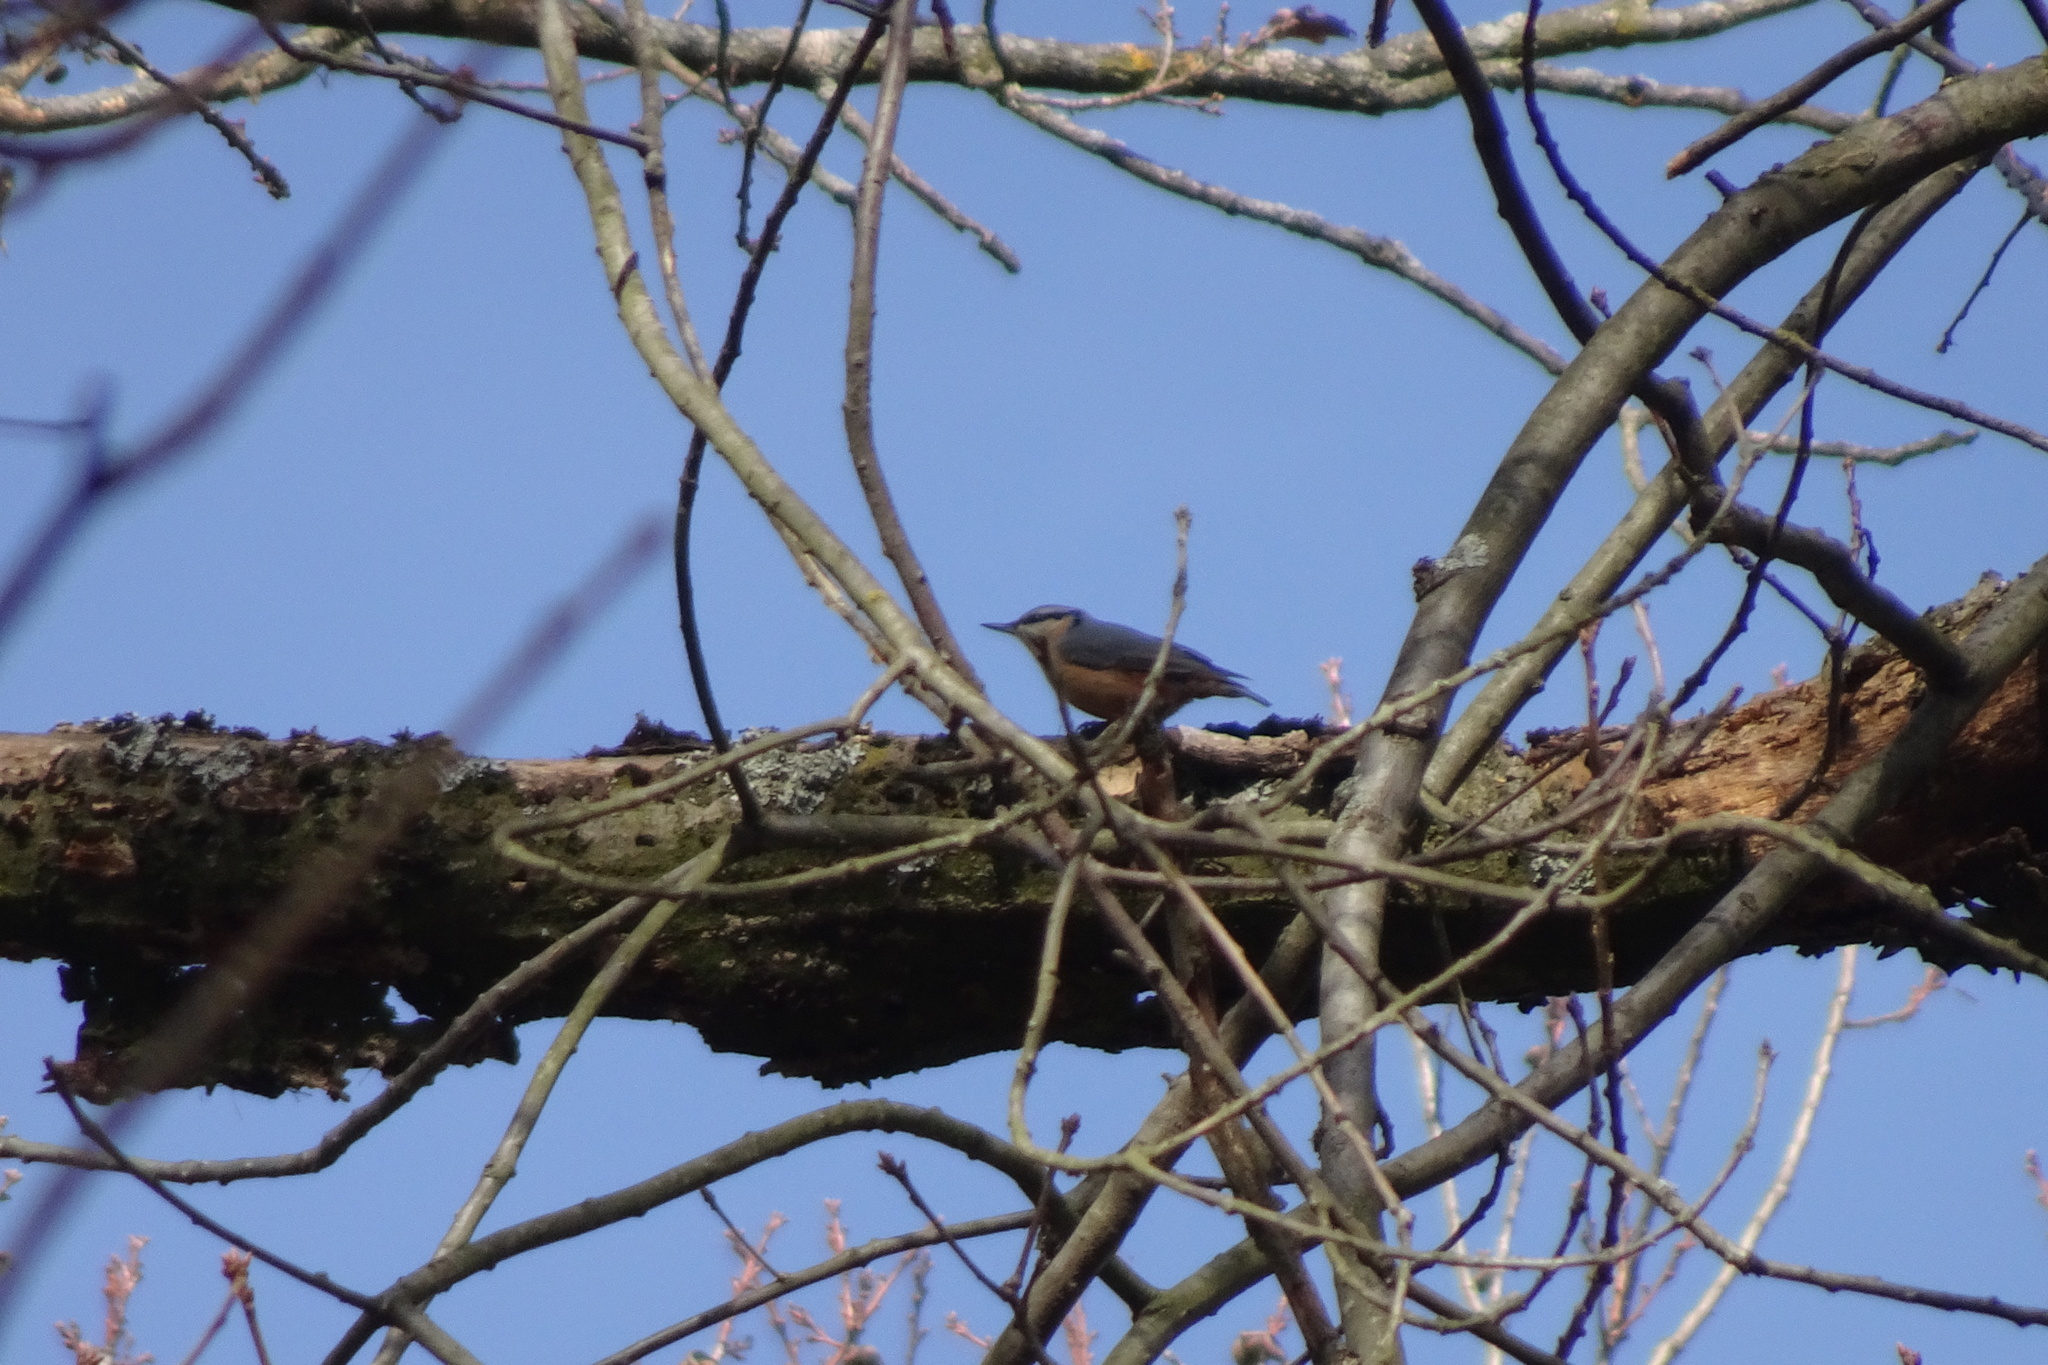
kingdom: Animalia
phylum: Chordata
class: Aves
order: Passeriformes
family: Sittidae
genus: Sitta
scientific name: Sitta europaea
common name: Eurasian nuthatch
